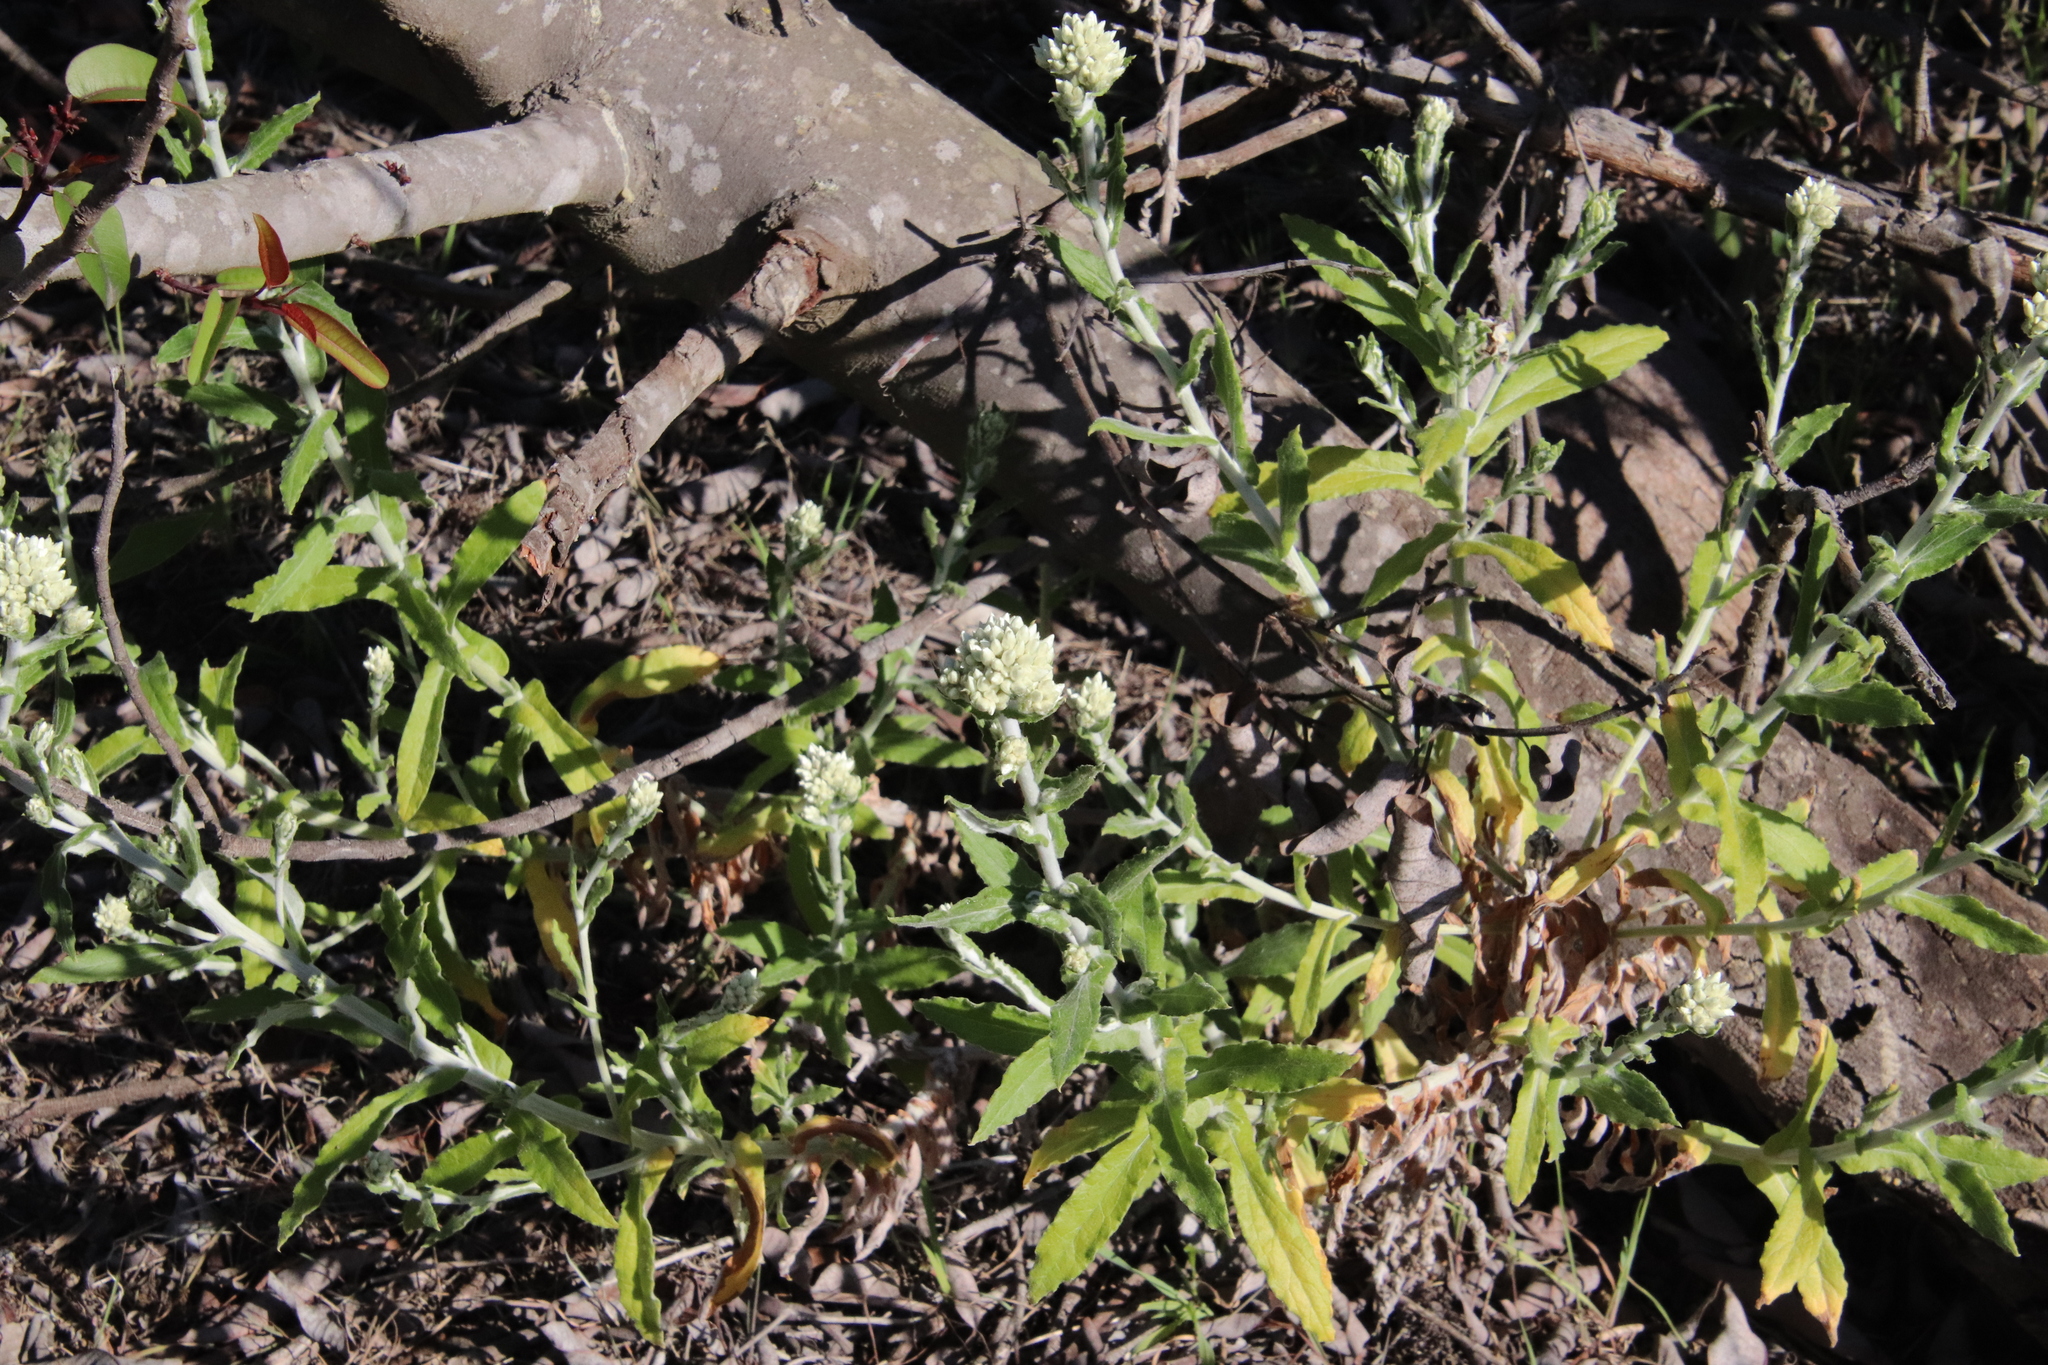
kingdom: Plantae
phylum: Tracheophyta
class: Magnoliopsida
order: Asterales
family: Asteraceae
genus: Pseudognaphalium
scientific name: Pseudognaphalium biolettii
